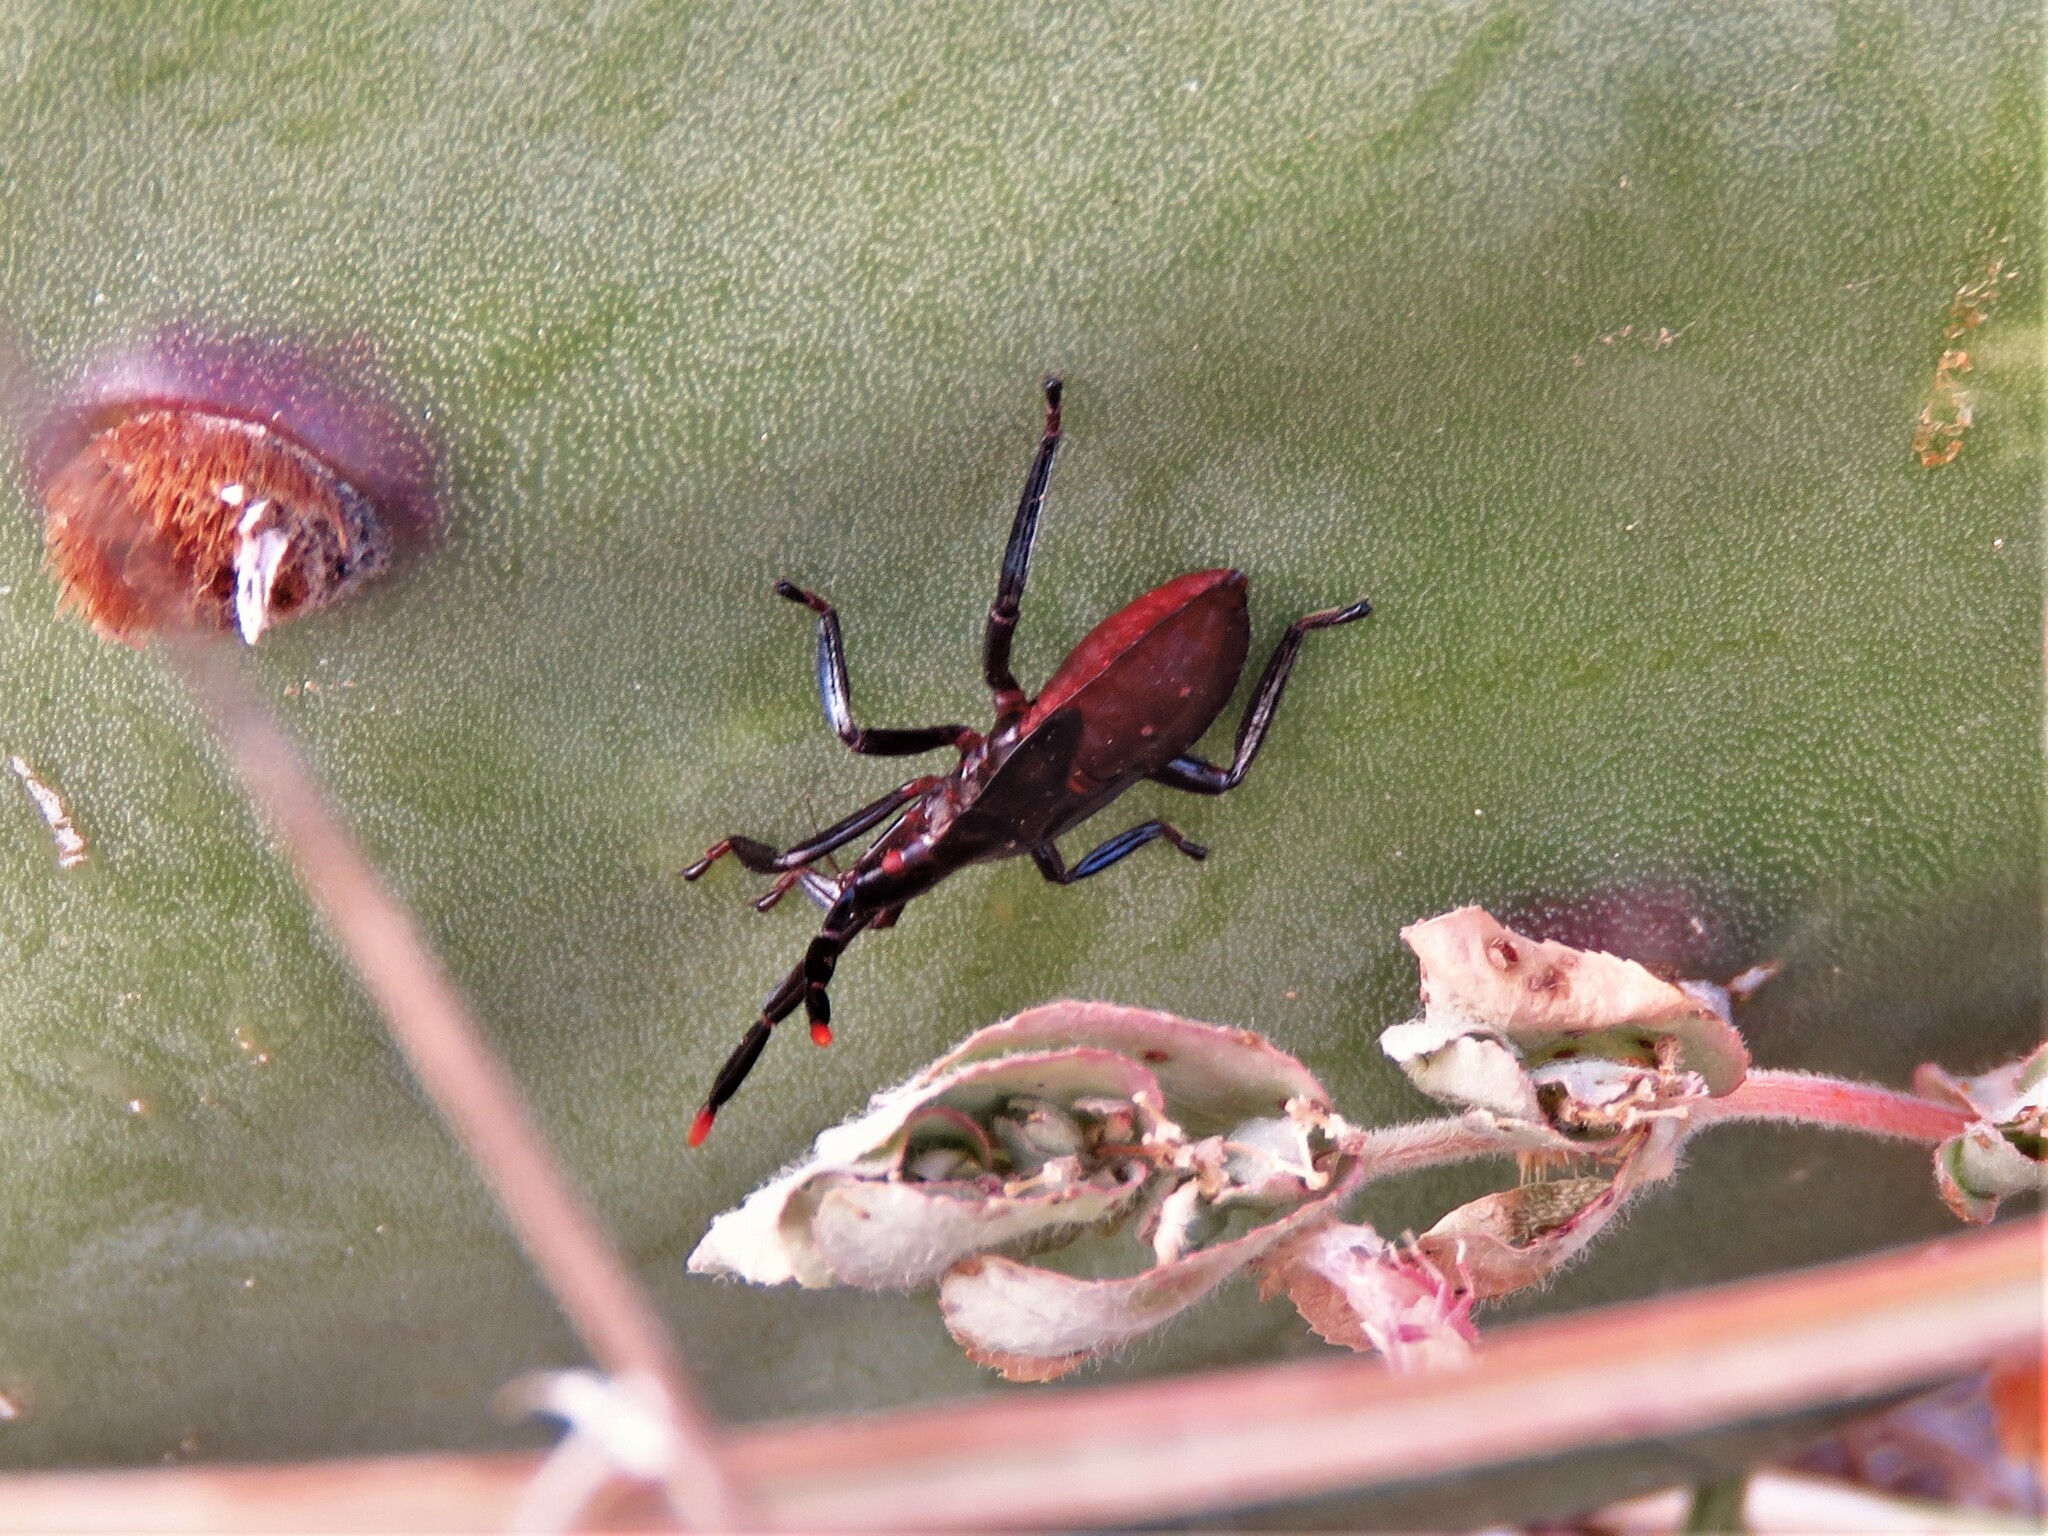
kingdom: Animalia
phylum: Arthropoda
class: Insecta
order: Hemiptera
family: Coreidae
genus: Chelinidea
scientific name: Chelinidea vittiger
